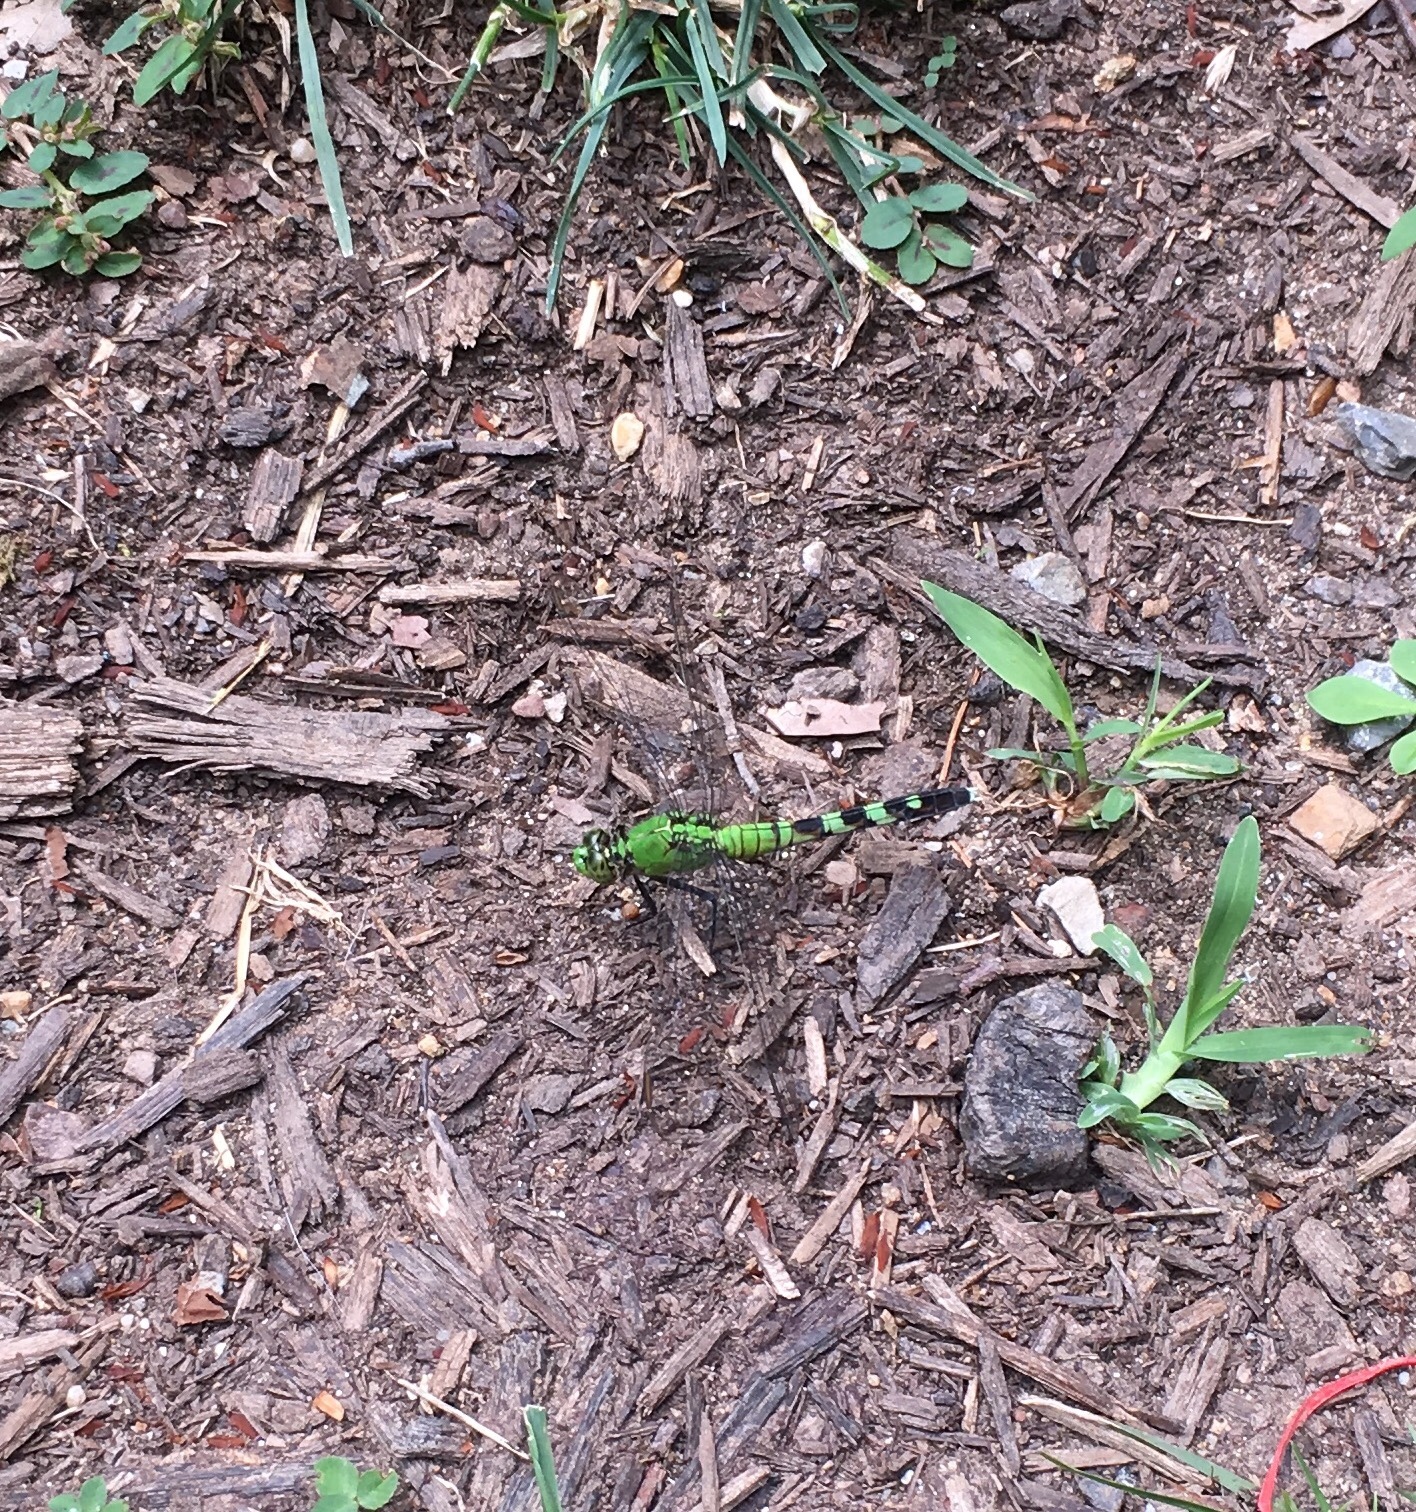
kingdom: Animalia
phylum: Arthropoda
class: Insecta
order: Odonata
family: Libellulidae
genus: Erythemis
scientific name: Erythemis simplicicollis
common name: Eastern pondhawk
